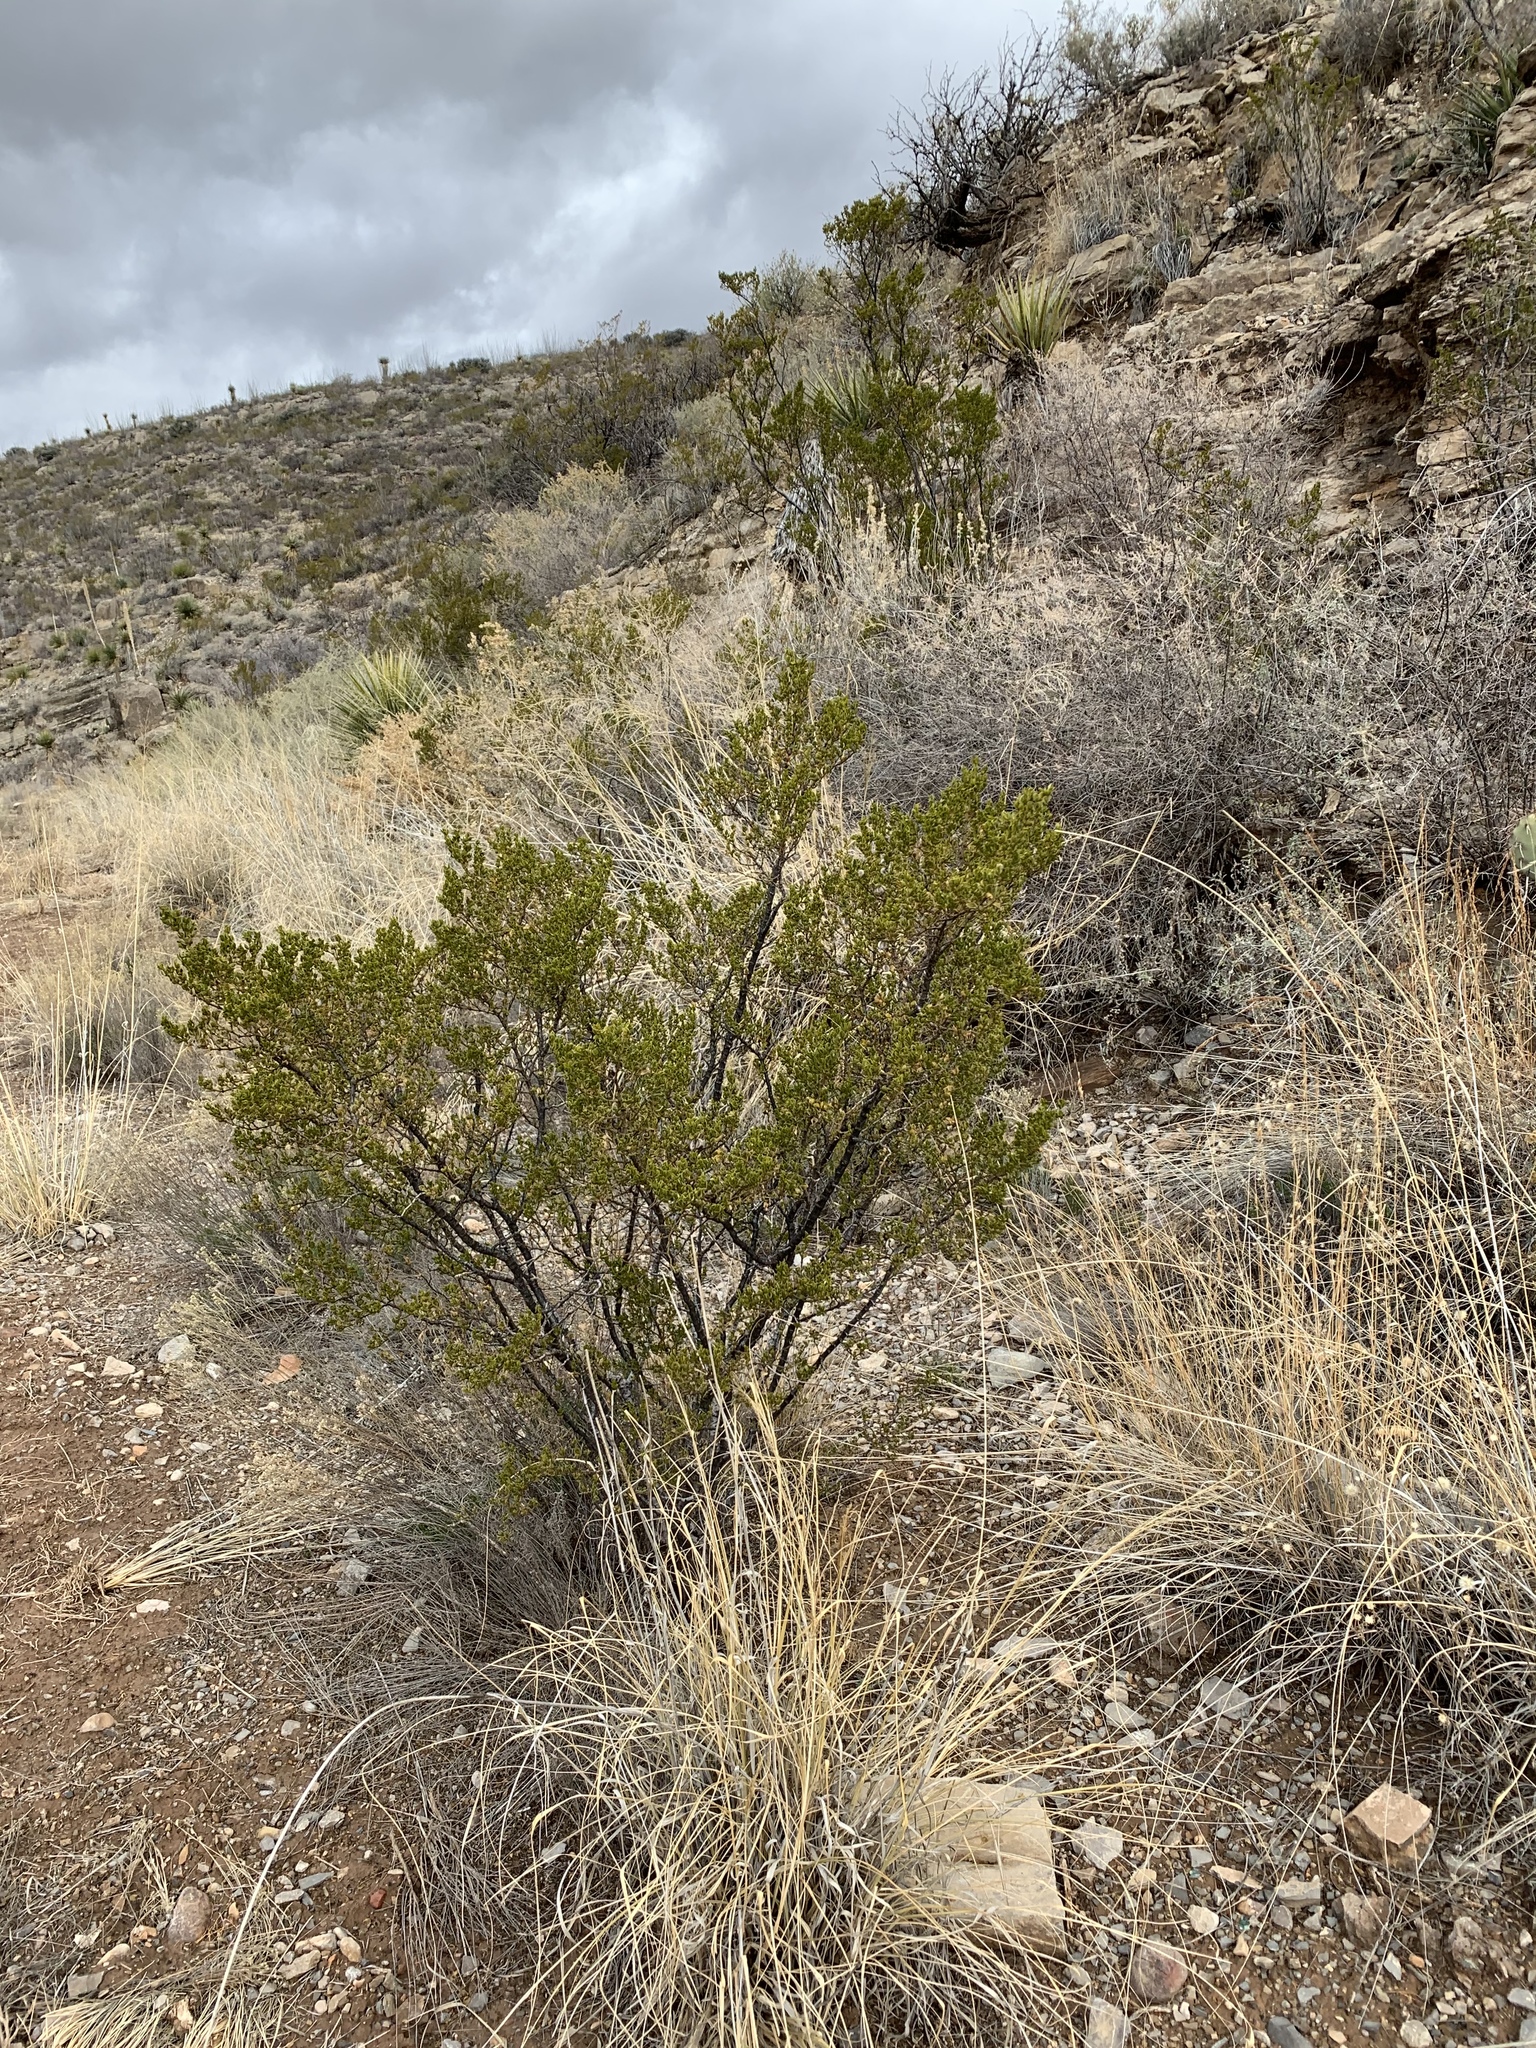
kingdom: Plantae
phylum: Tracheophyta
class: Magnoliopsida
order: Zygophyllales
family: Zygophyllaceae
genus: Larrea
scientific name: Larrea tridentata
